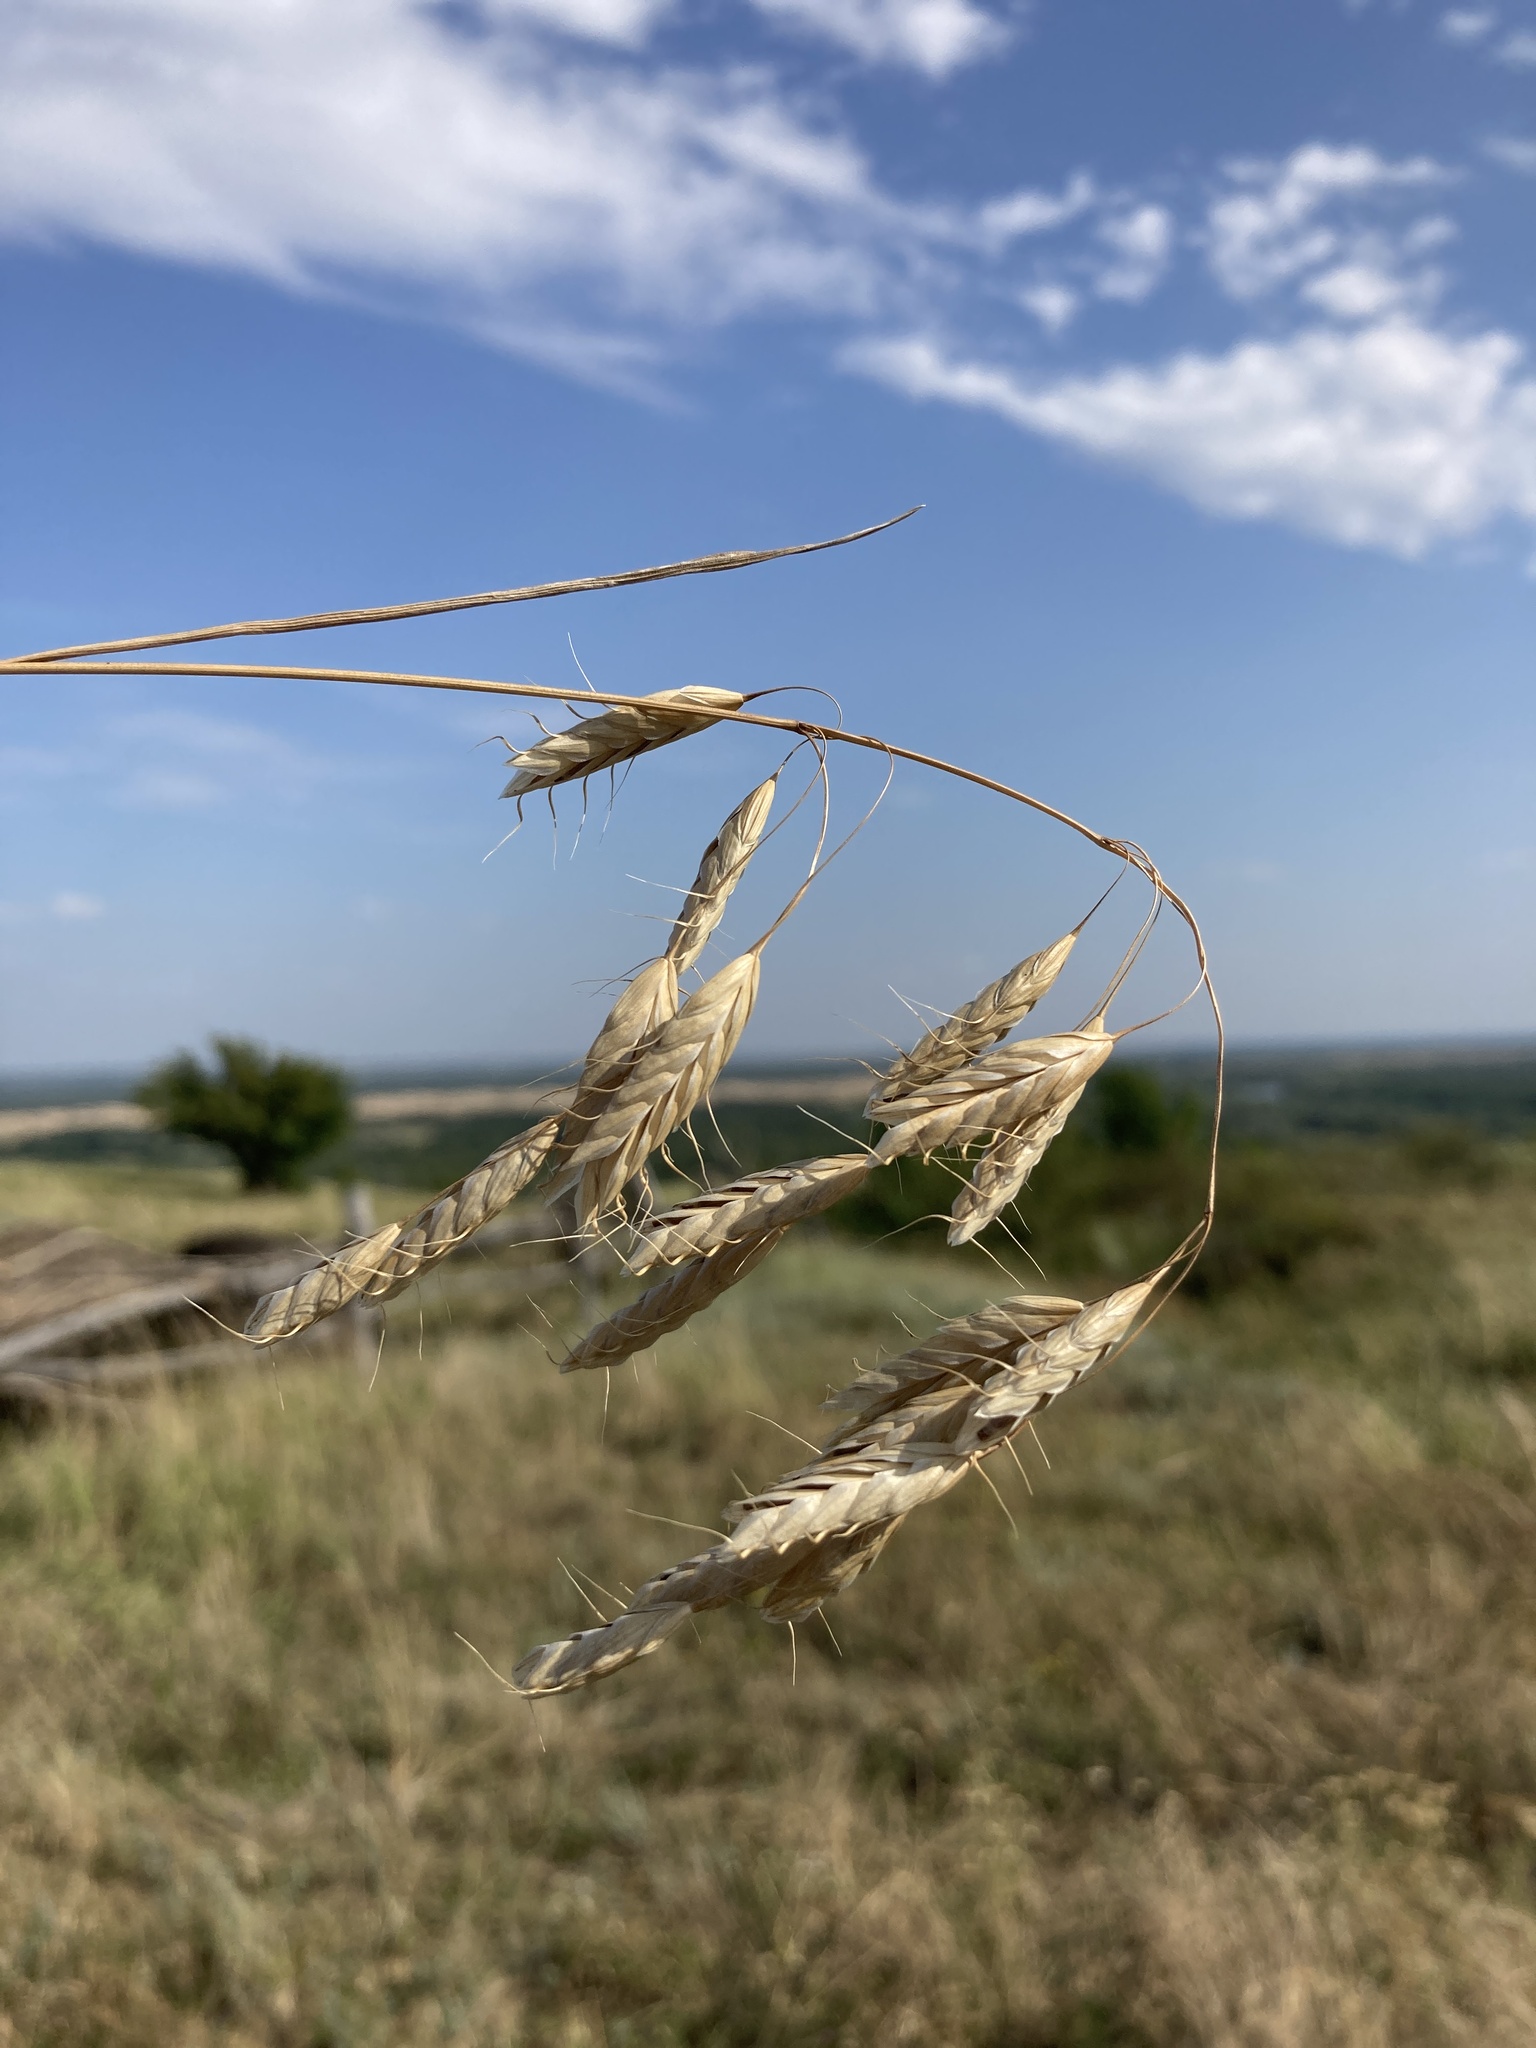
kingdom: Plantae
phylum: Tracheophyta
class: Liliopsida
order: Poales
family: Poaceae
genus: Bromus
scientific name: Bromus squarrosus
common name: Corn brome
